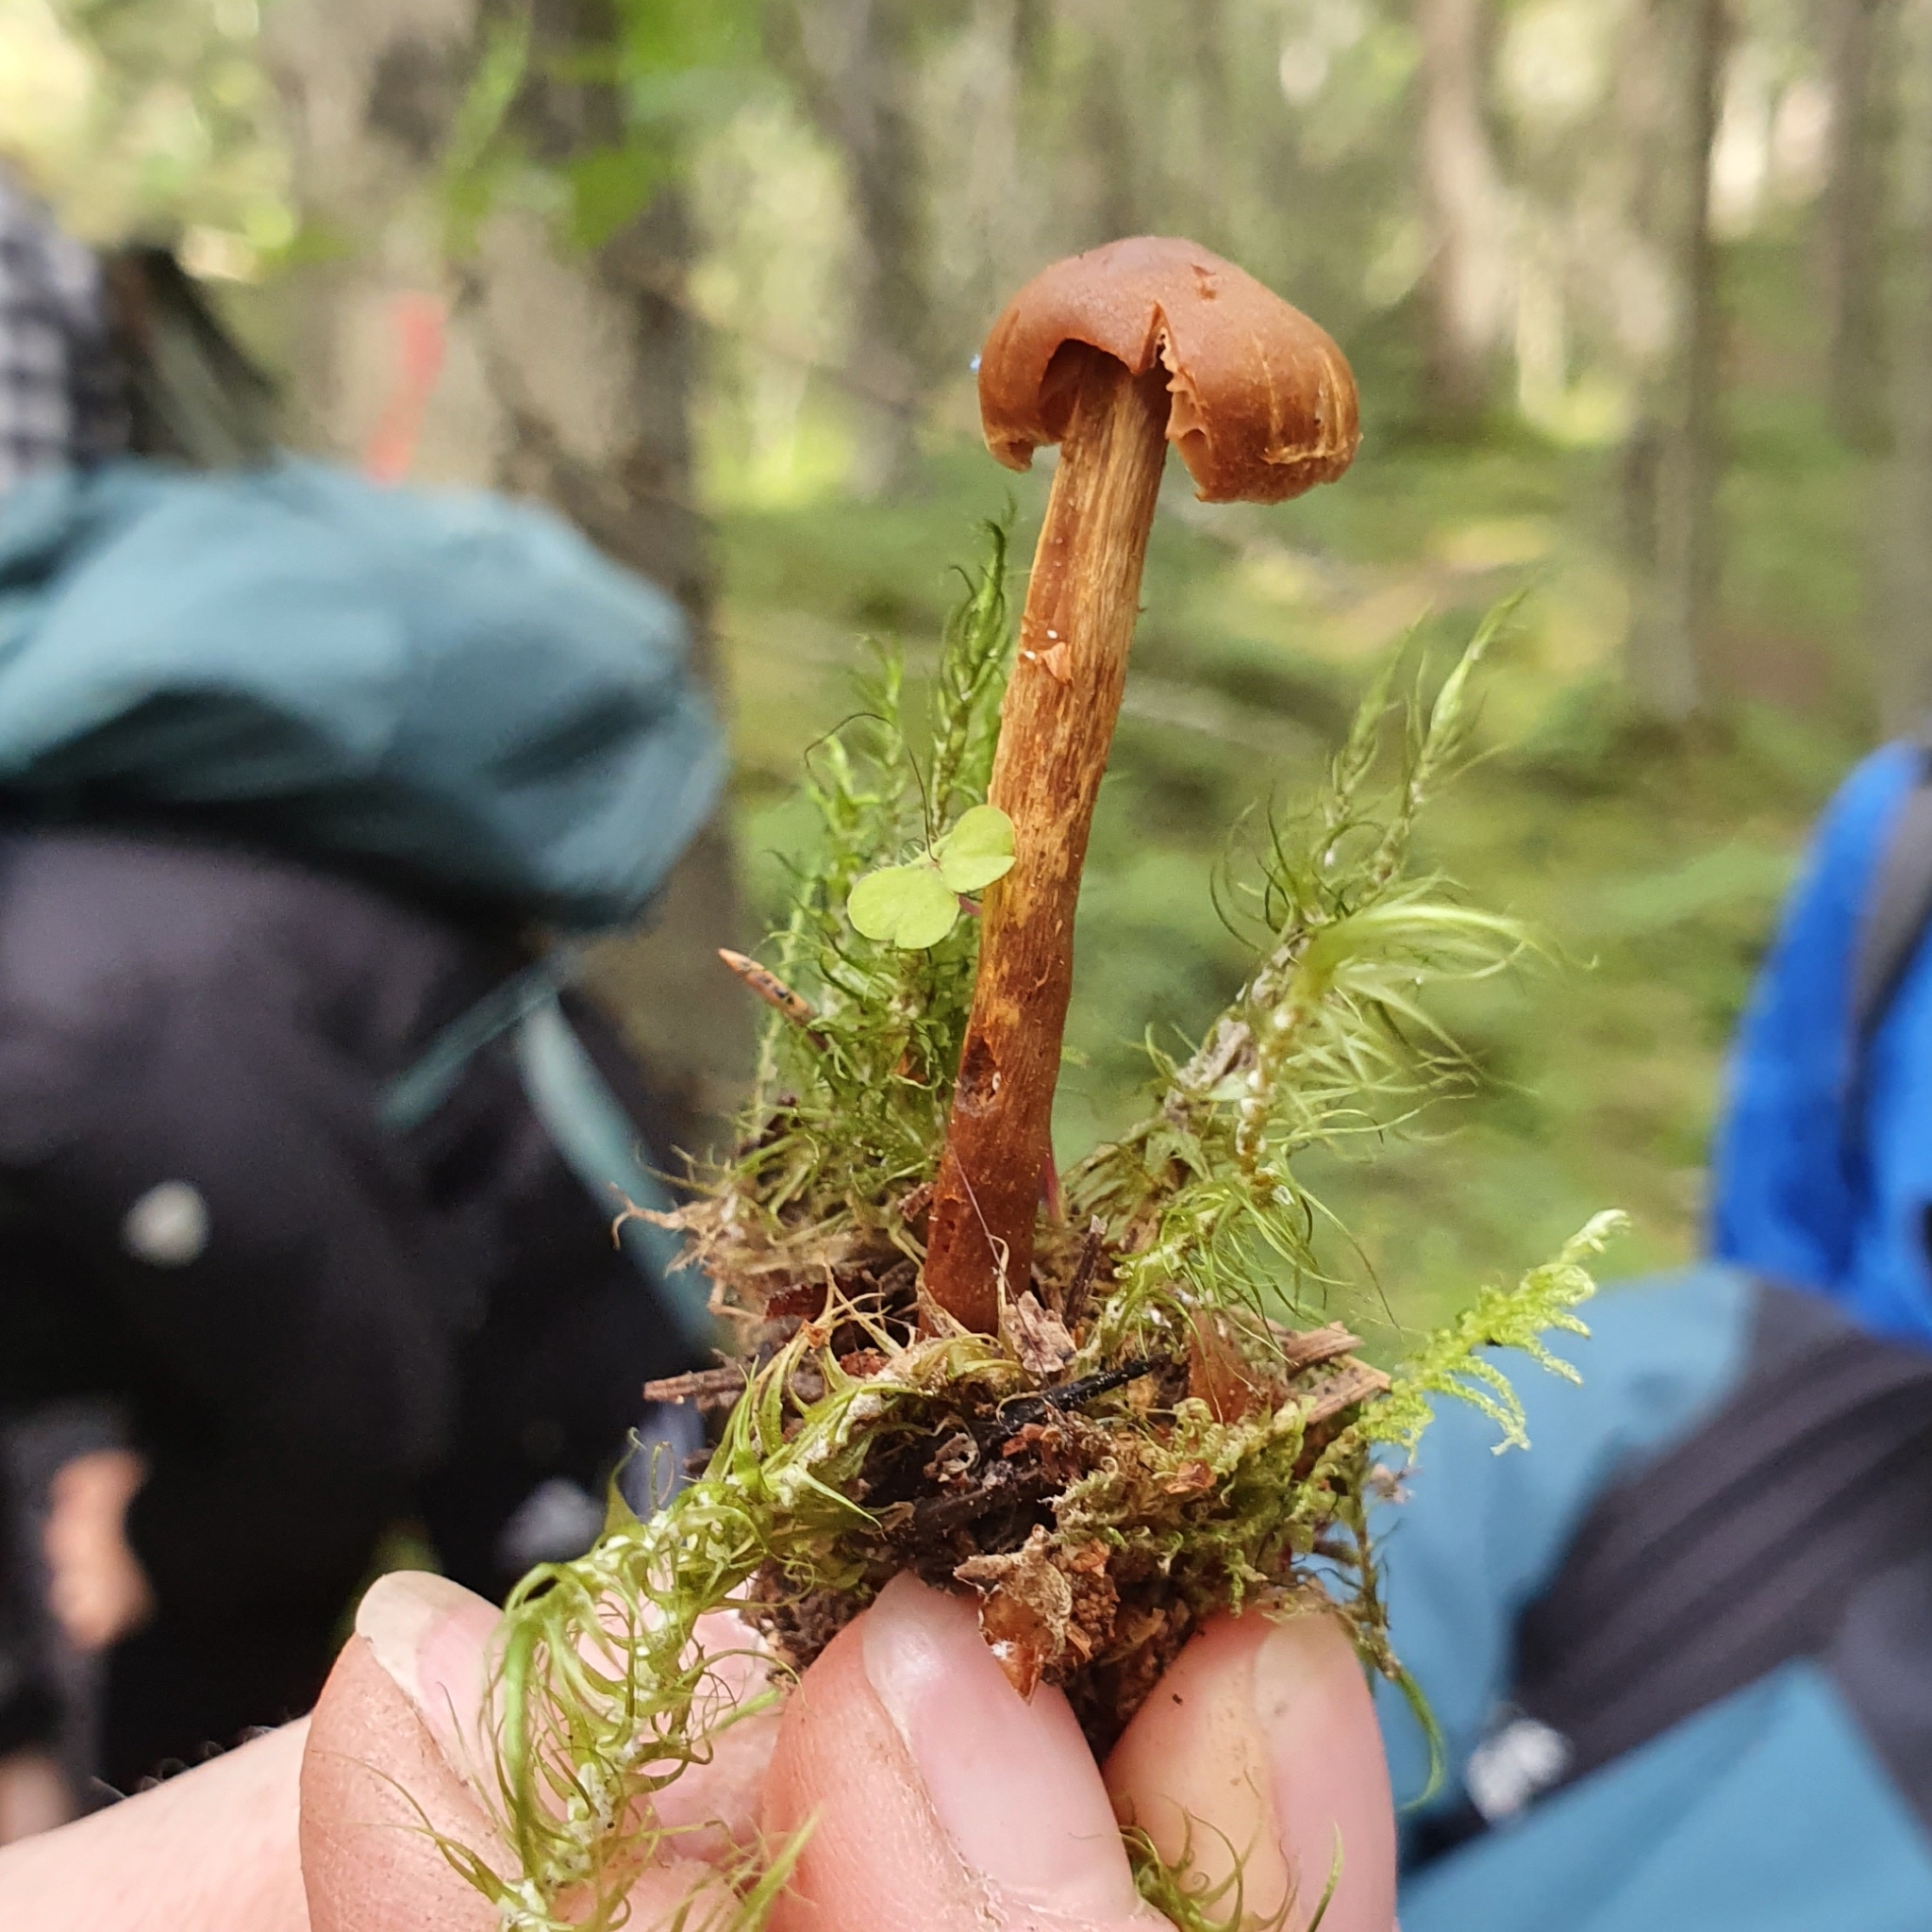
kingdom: Fungi
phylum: Basidiomycota
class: Agaricomycetes
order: Agaricales
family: Cortinariaceae
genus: Cortinarius
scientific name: Cortinarius gentilis
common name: Conifer webcap
